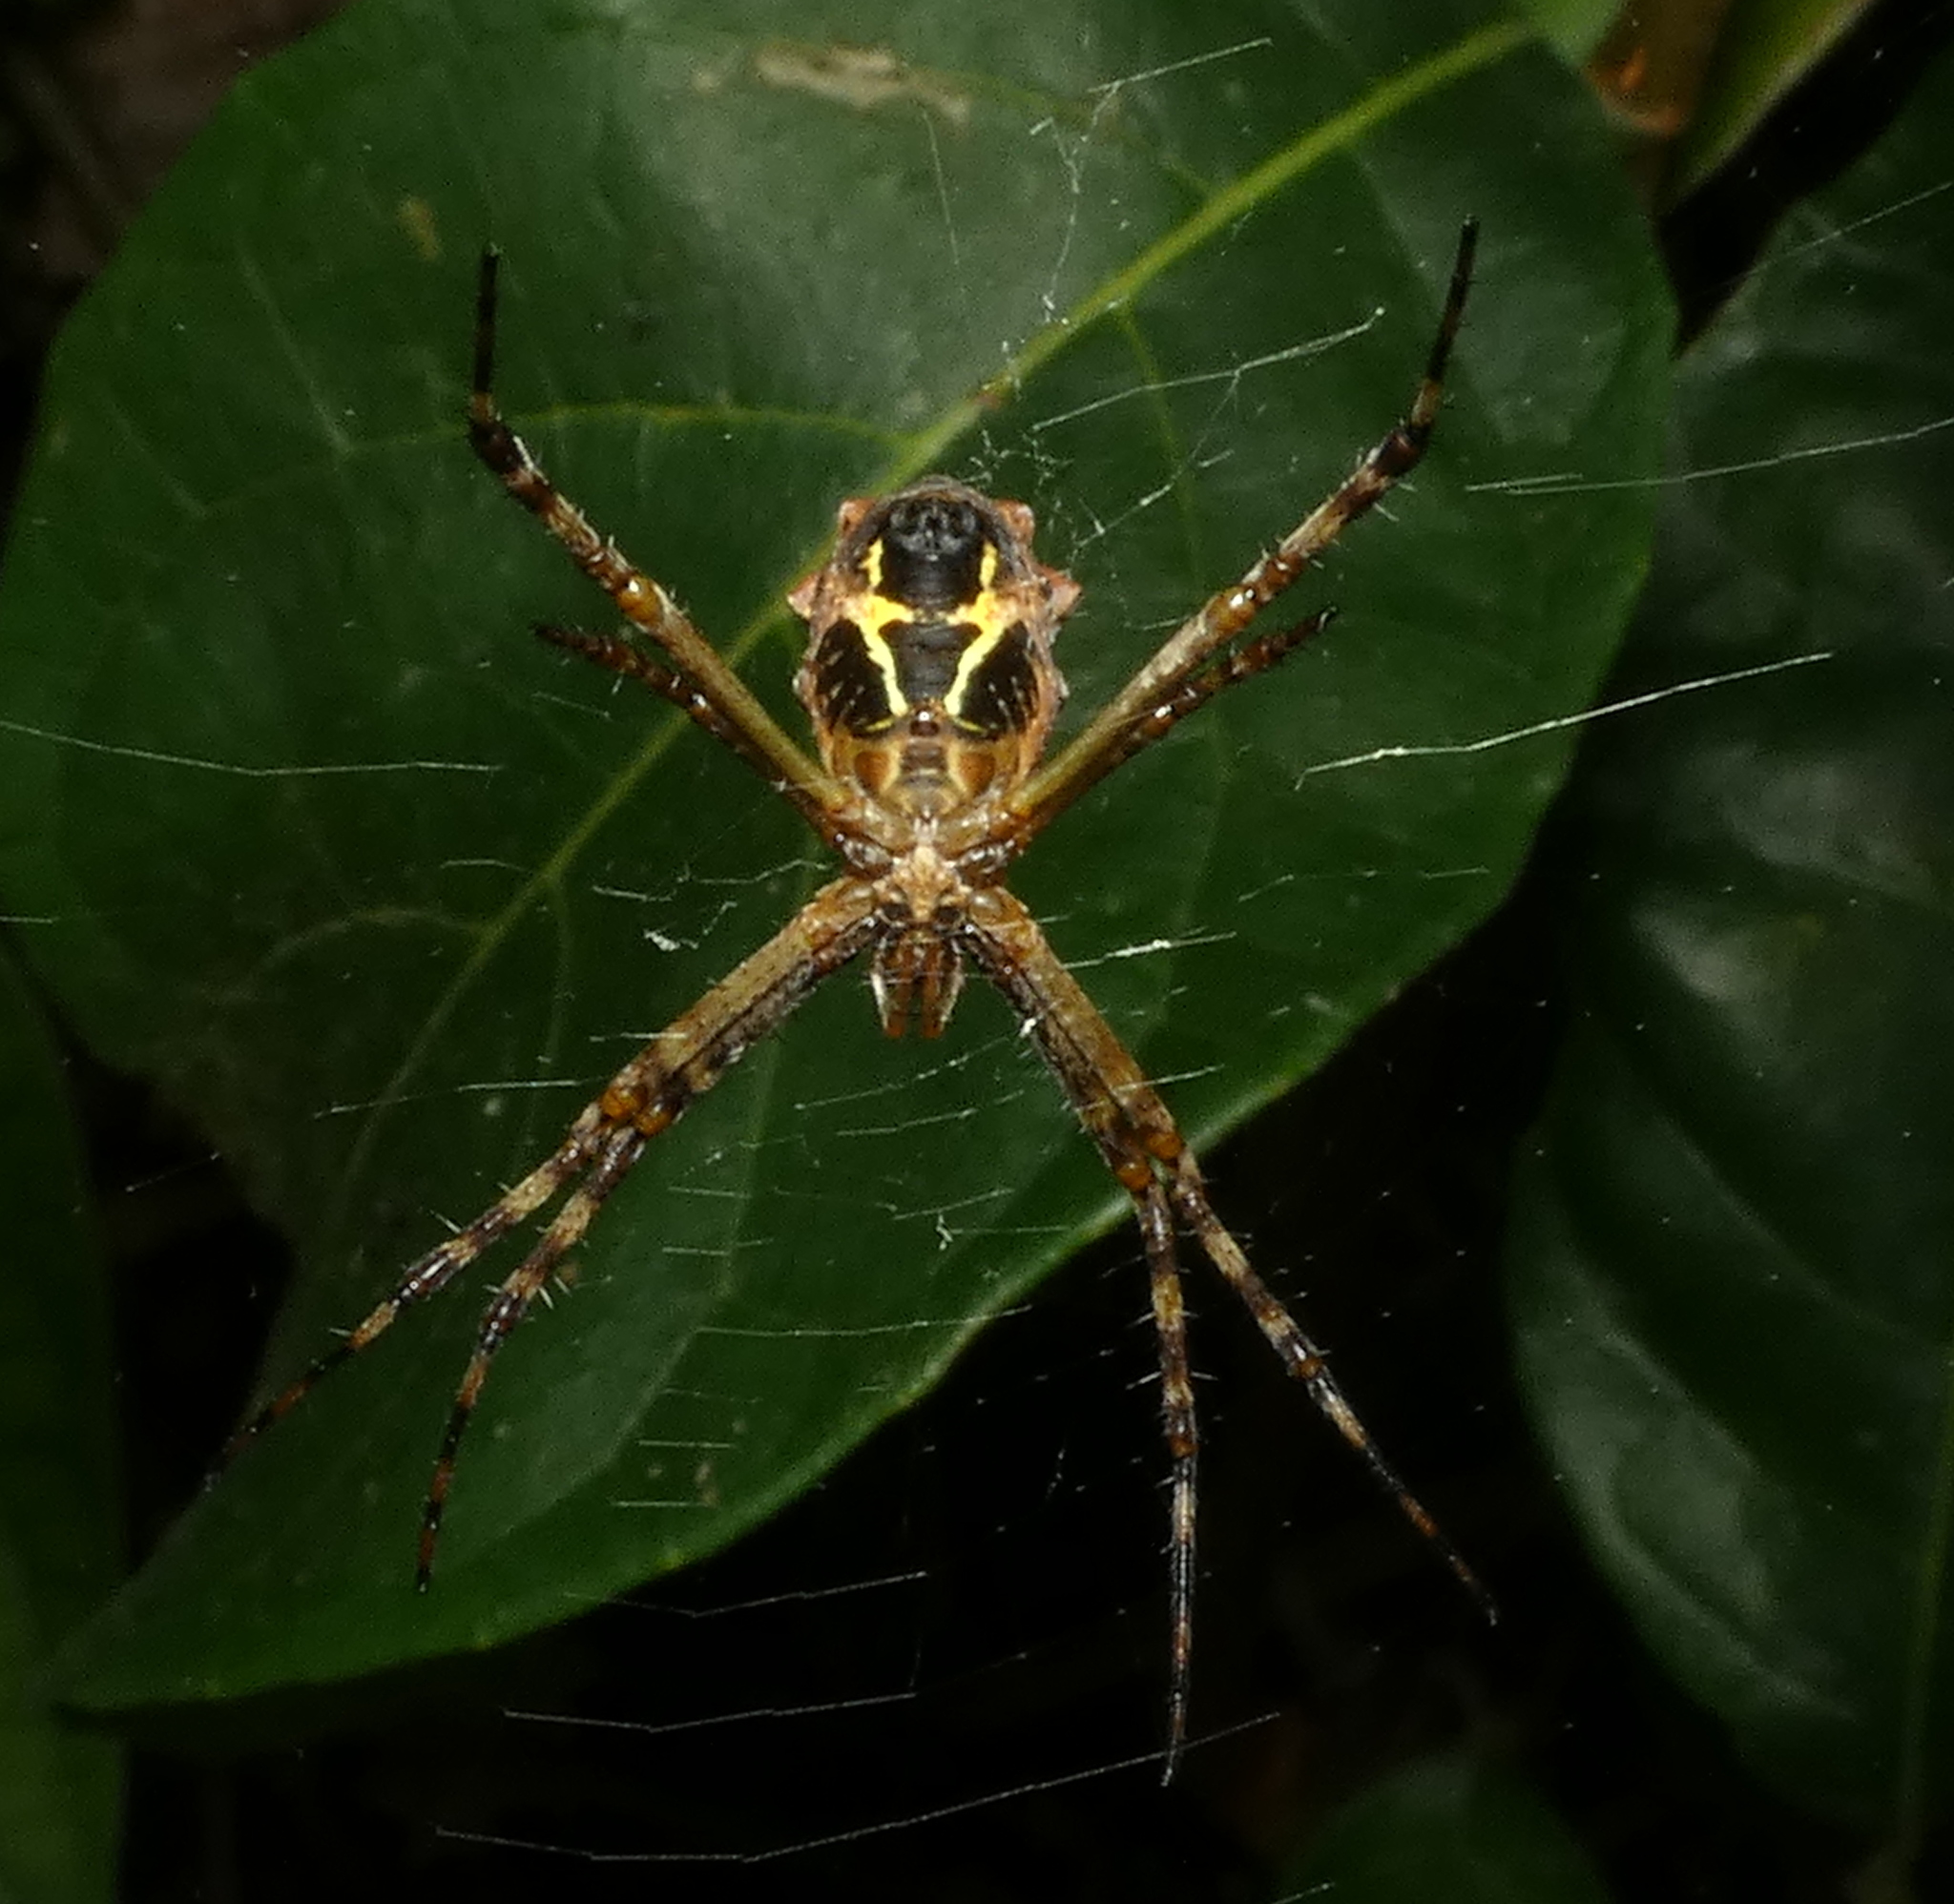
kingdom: Animalia
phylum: Arthropoda
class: Arachnida
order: Araneae
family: Araneidae
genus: Argiope
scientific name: Argiope argentata
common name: Orb weavers
